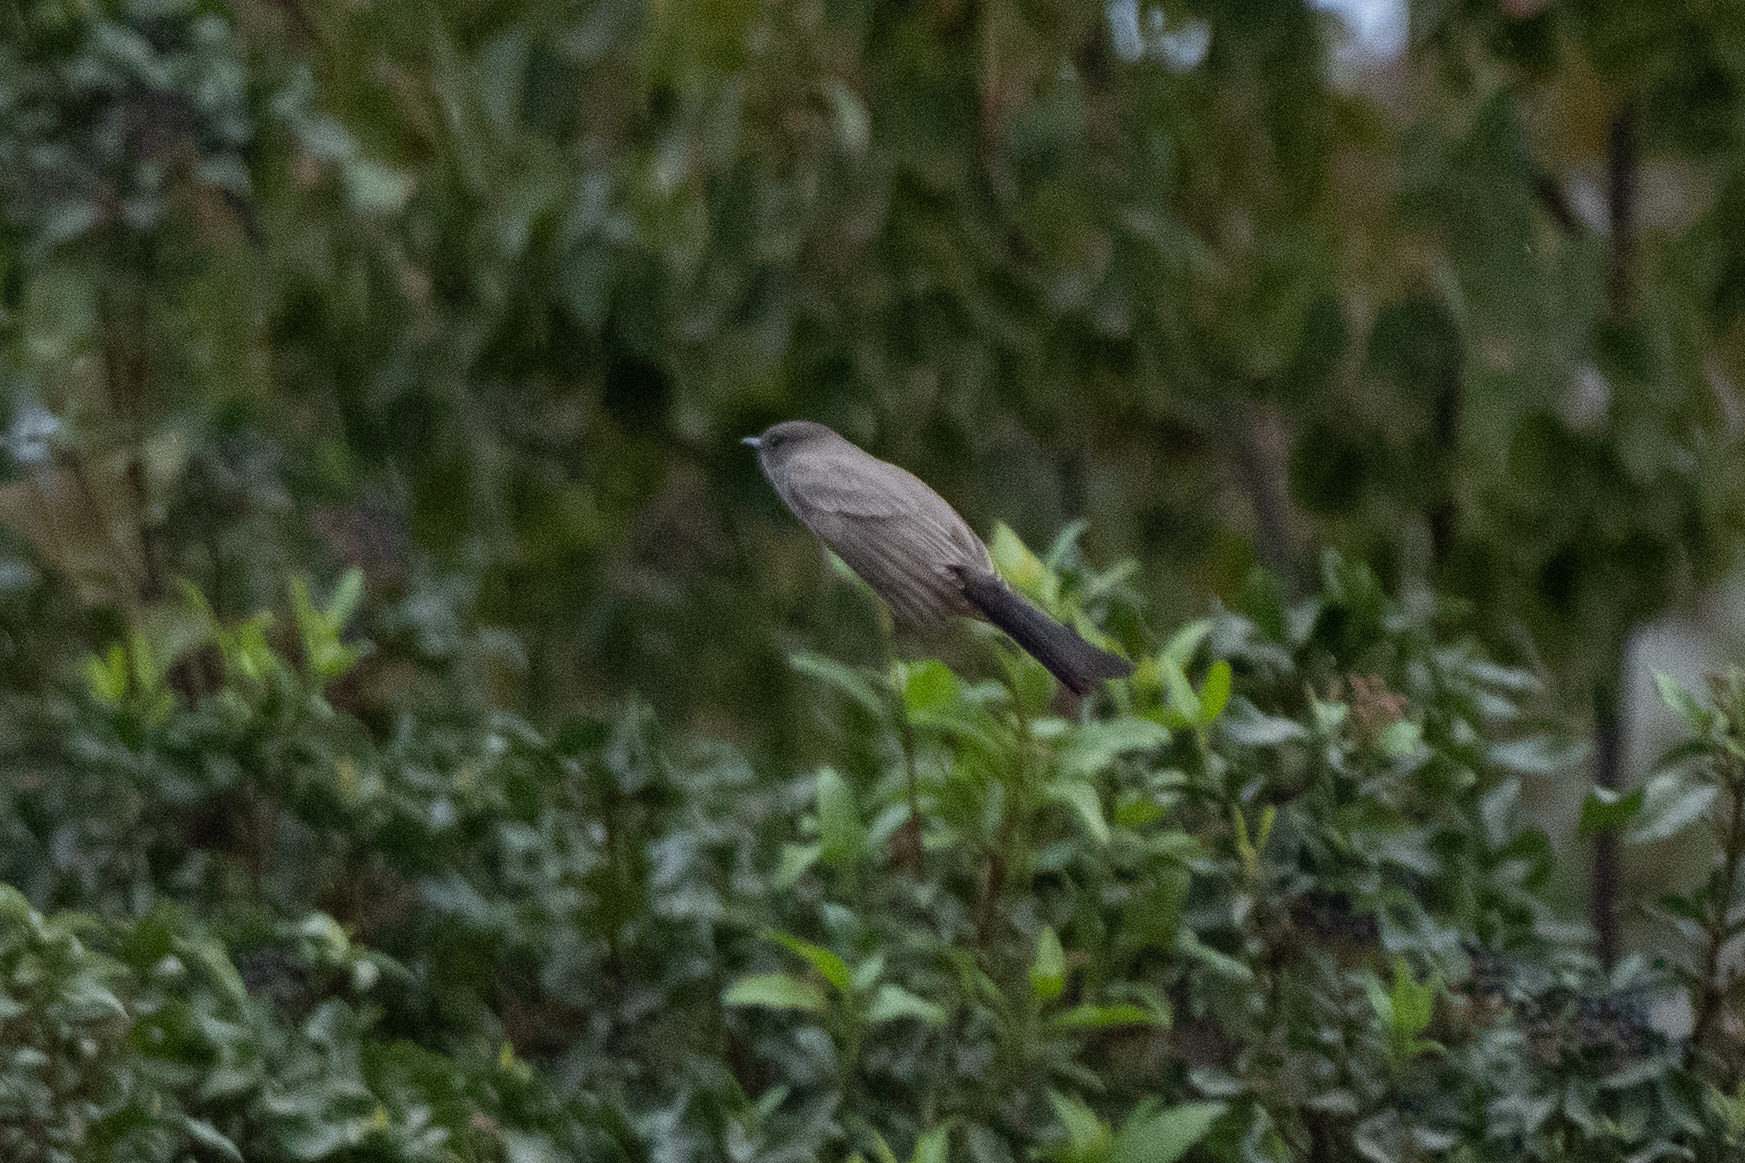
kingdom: Animalia
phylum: Chordata
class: Aves
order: Passeriformes
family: Tyrannidae
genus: Sayornis
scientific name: Sayornis saya
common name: Say's phoebe
